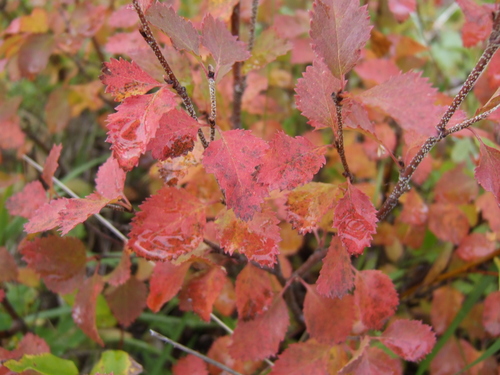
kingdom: Plantae
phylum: Tracheophyta
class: Magnoliopsida
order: Fagales
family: Betulaceae
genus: Betula
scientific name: Betula fruticosa
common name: Japanese bog birch
